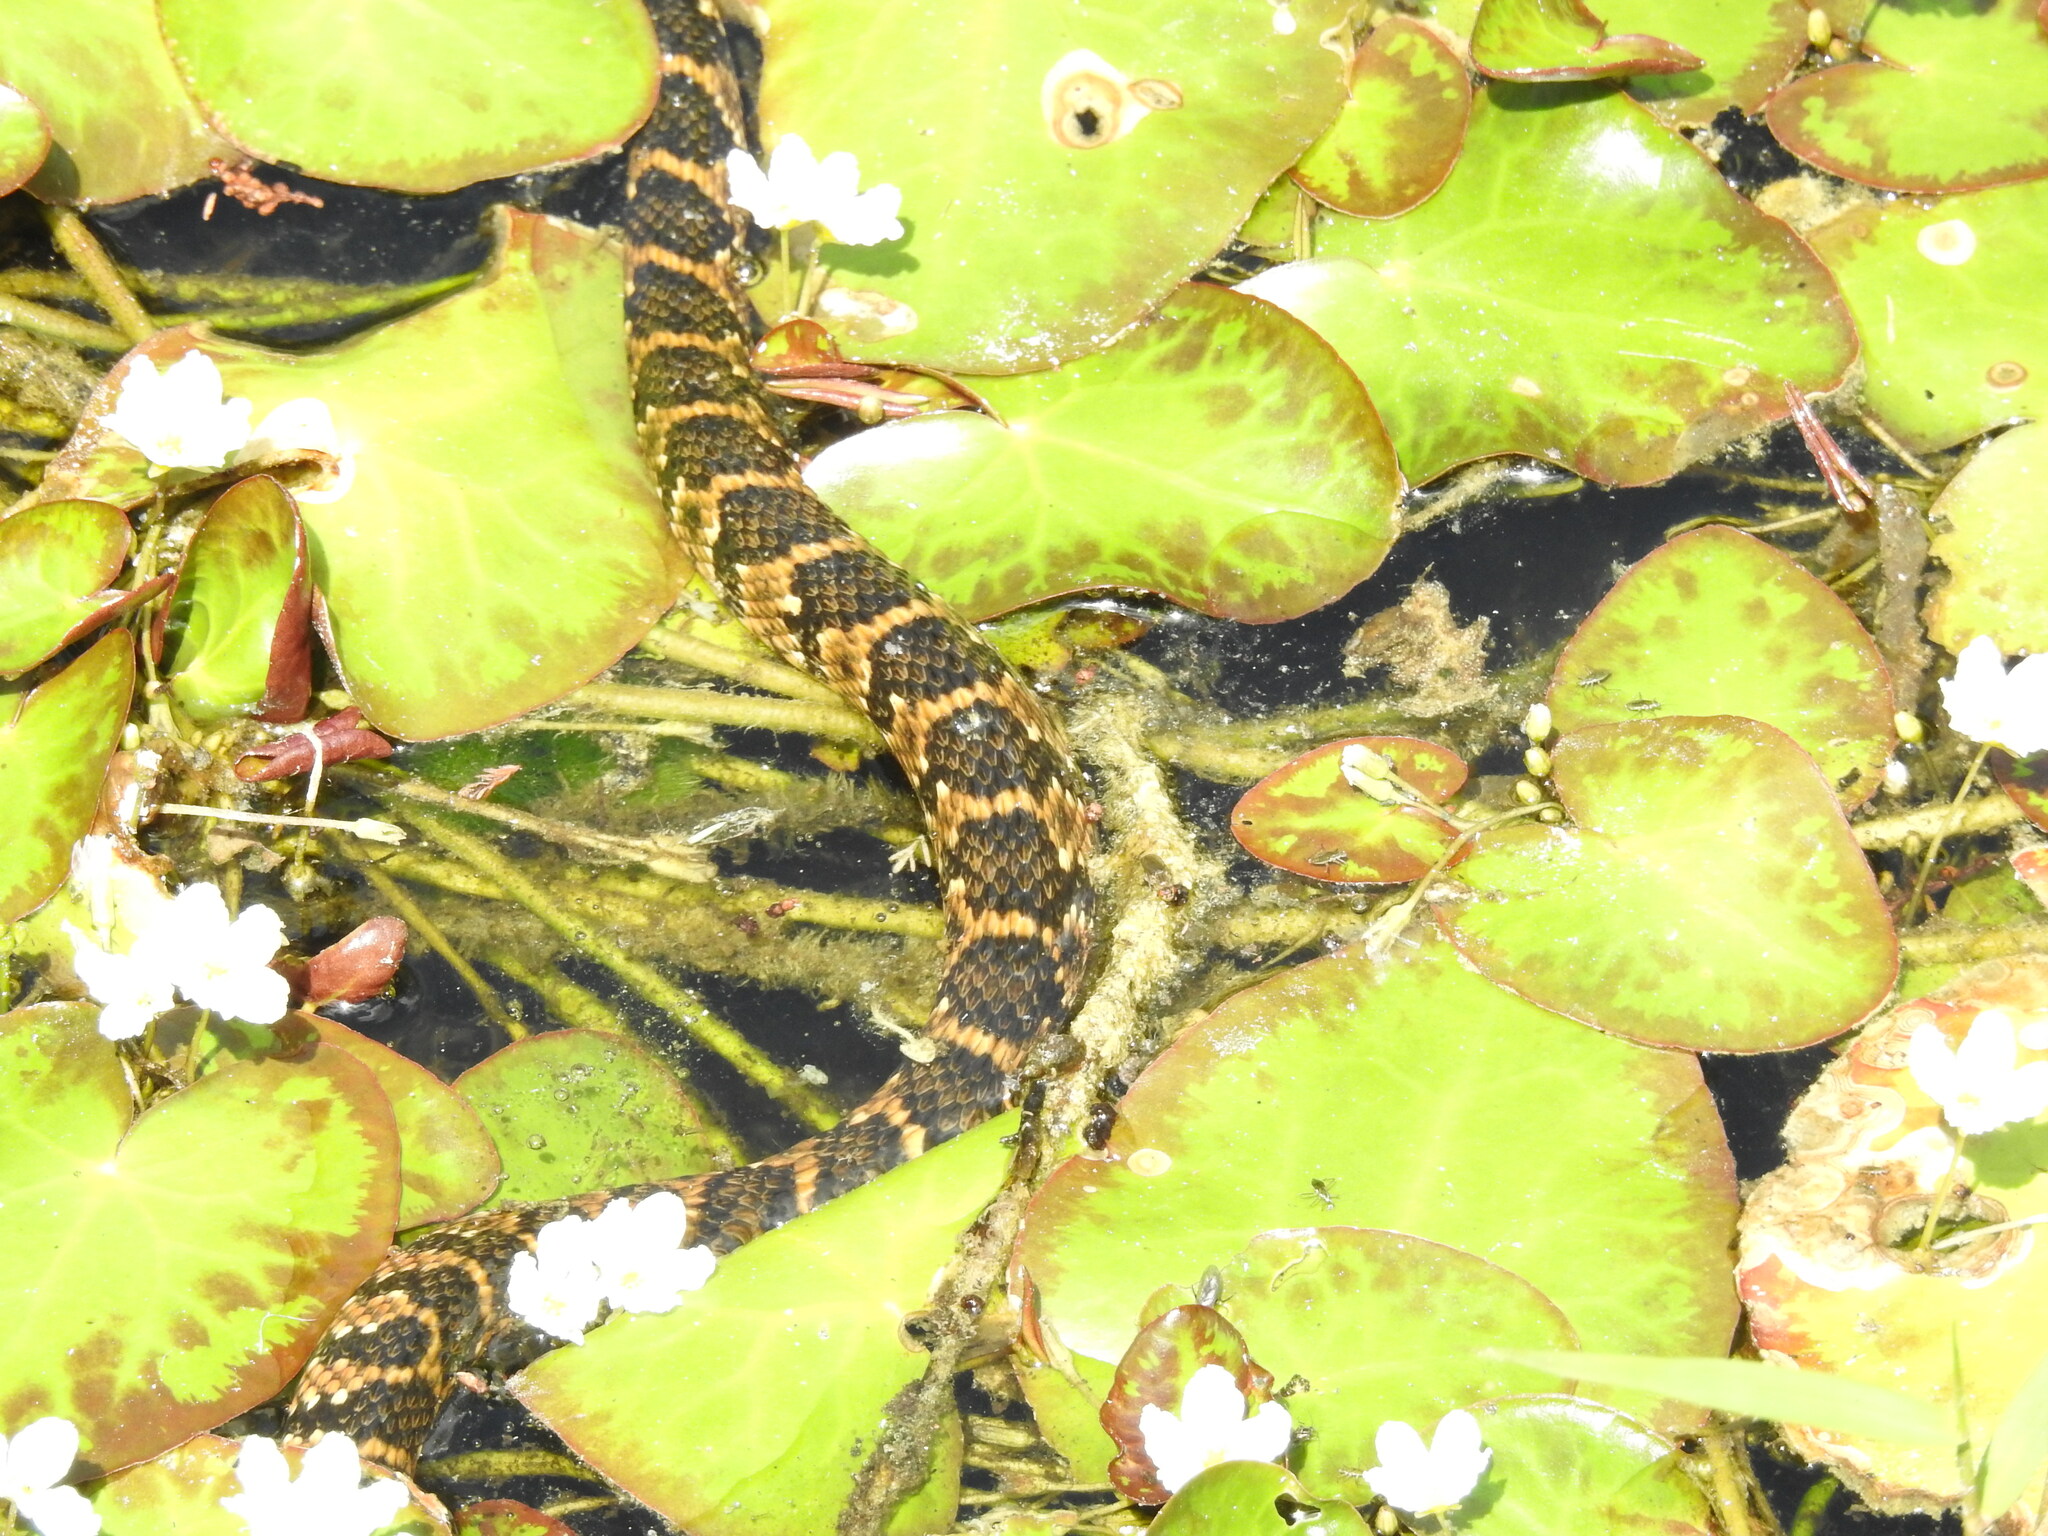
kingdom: Animalia
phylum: Chordata
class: Squamata
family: Colubridae
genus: Nerodia
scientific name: Nerodia fasciata
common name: Southern water snake
